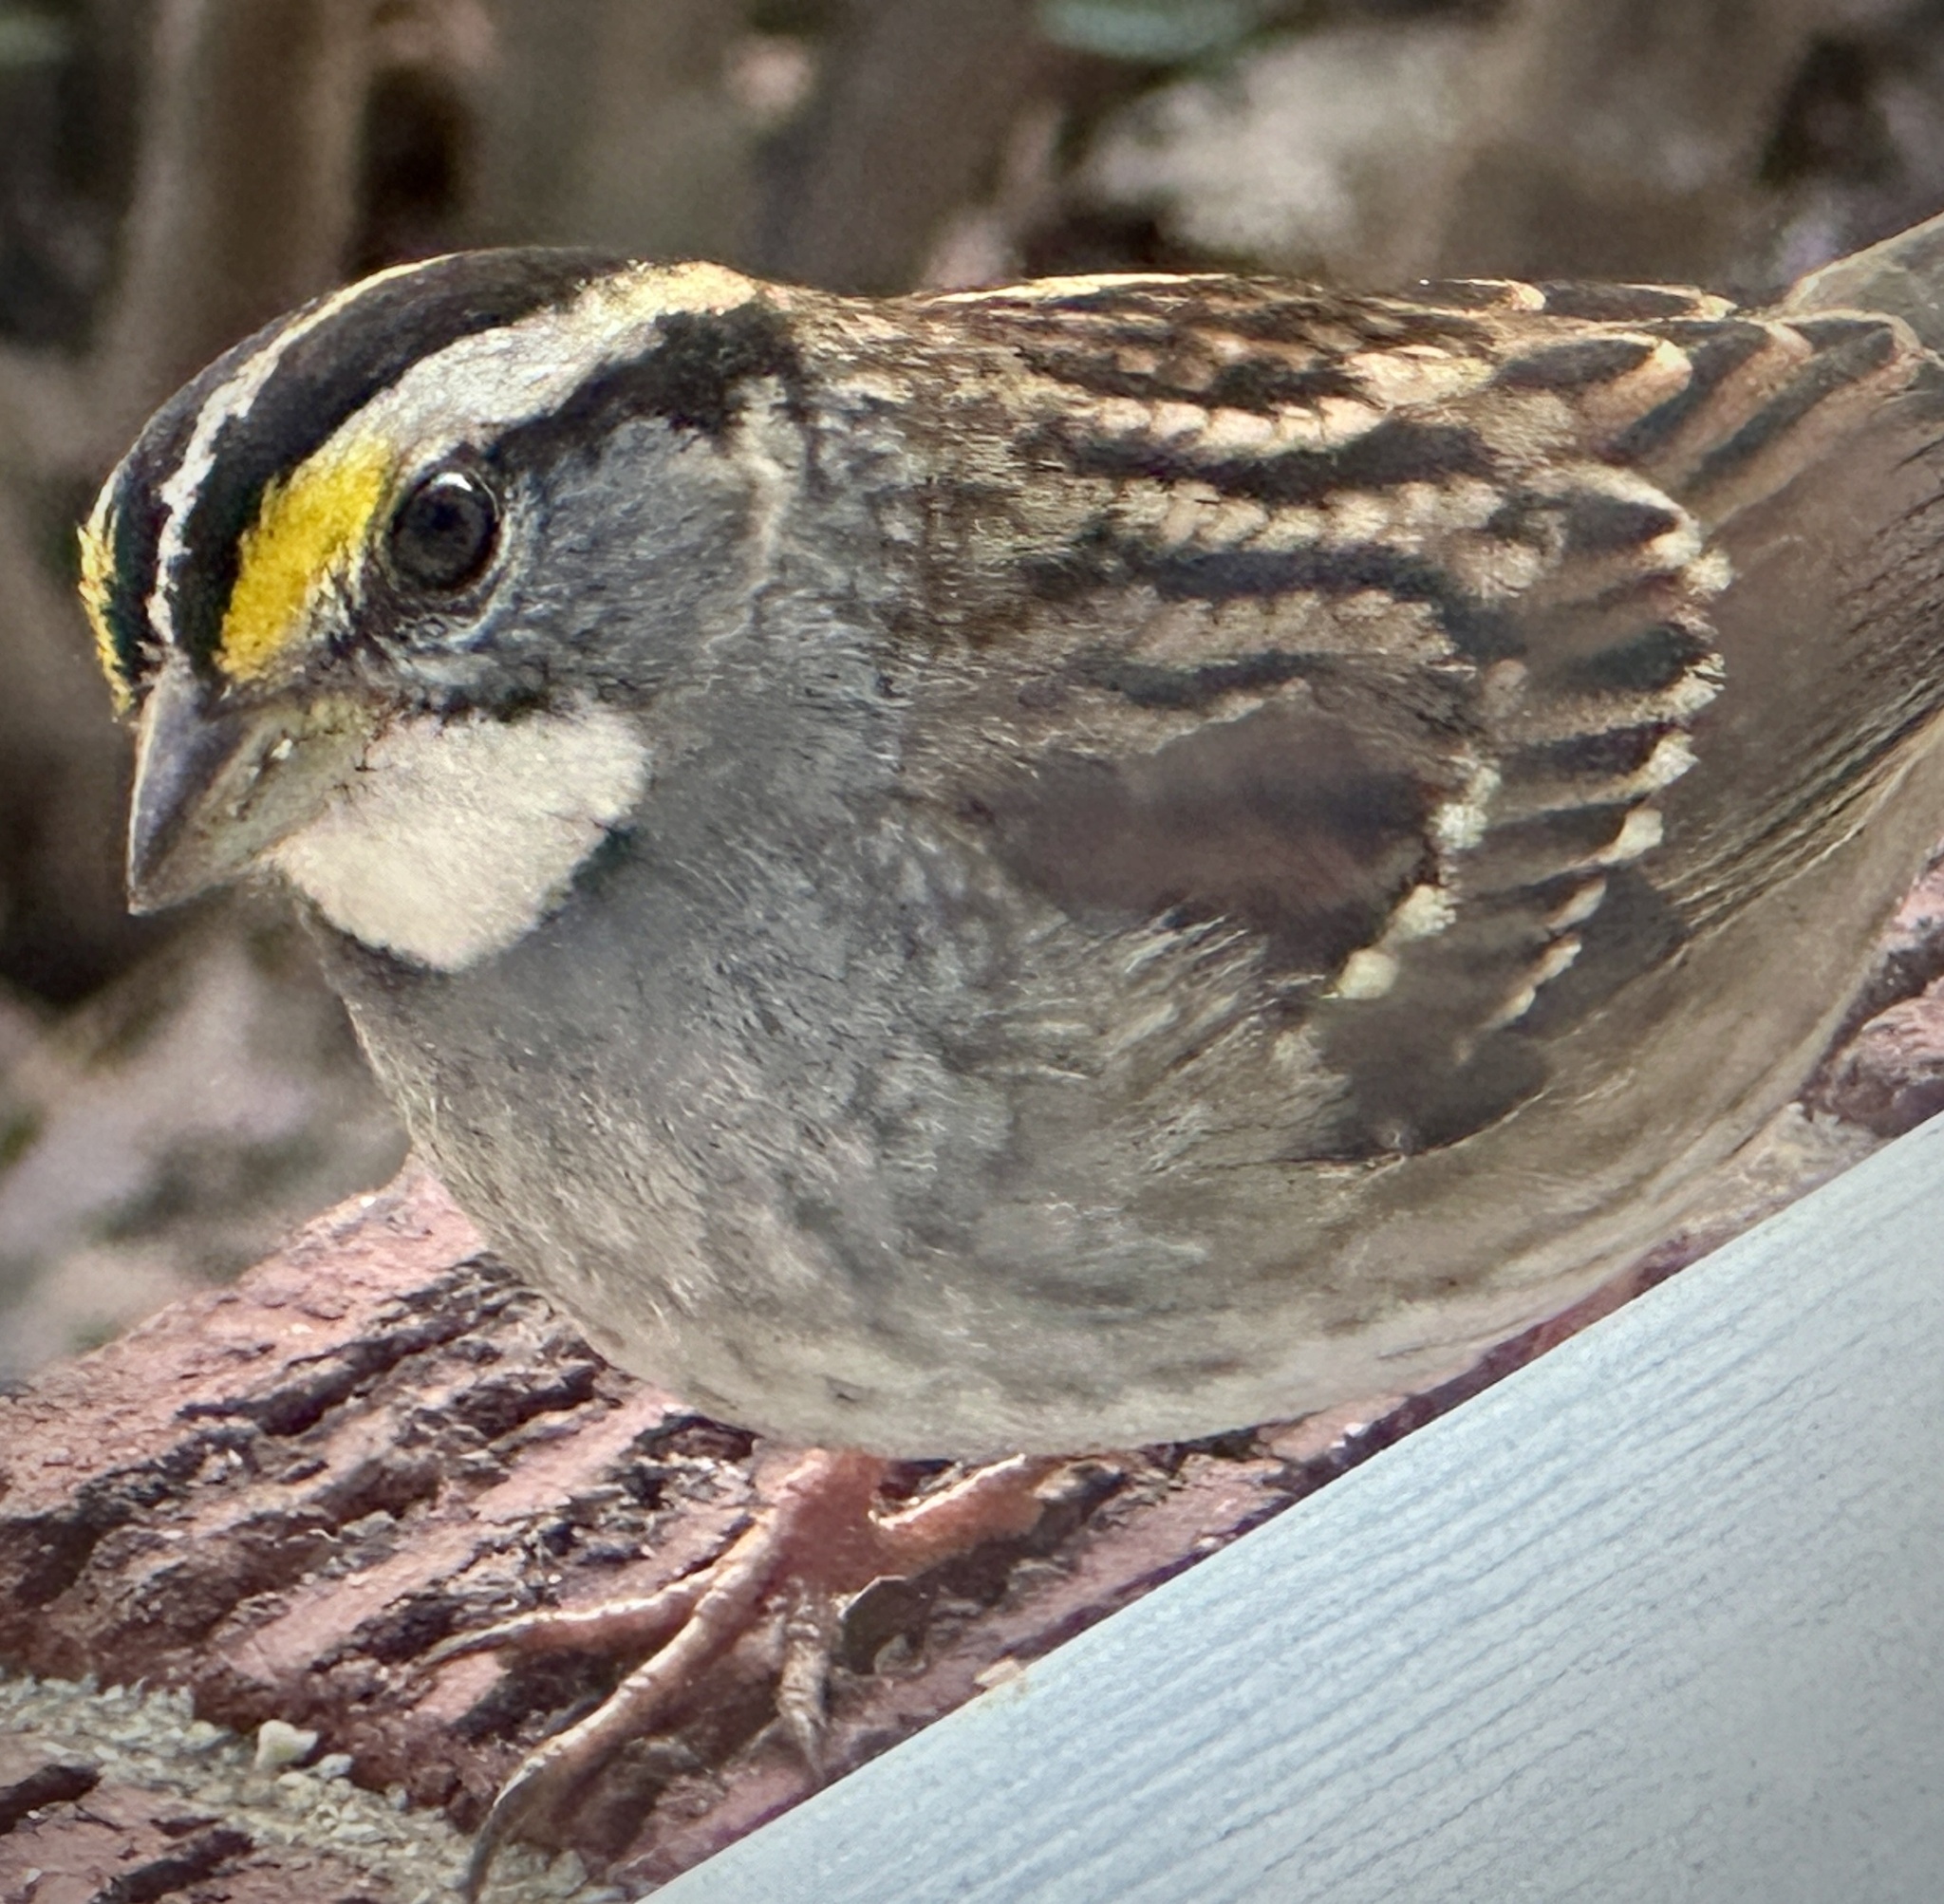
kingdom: Animalia
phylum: Chordata
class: Aves
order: Passeriformes
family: Passerellidae
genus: Zonotrichia
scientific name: Zonotrichia albicollis
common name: White-throated sparrow
